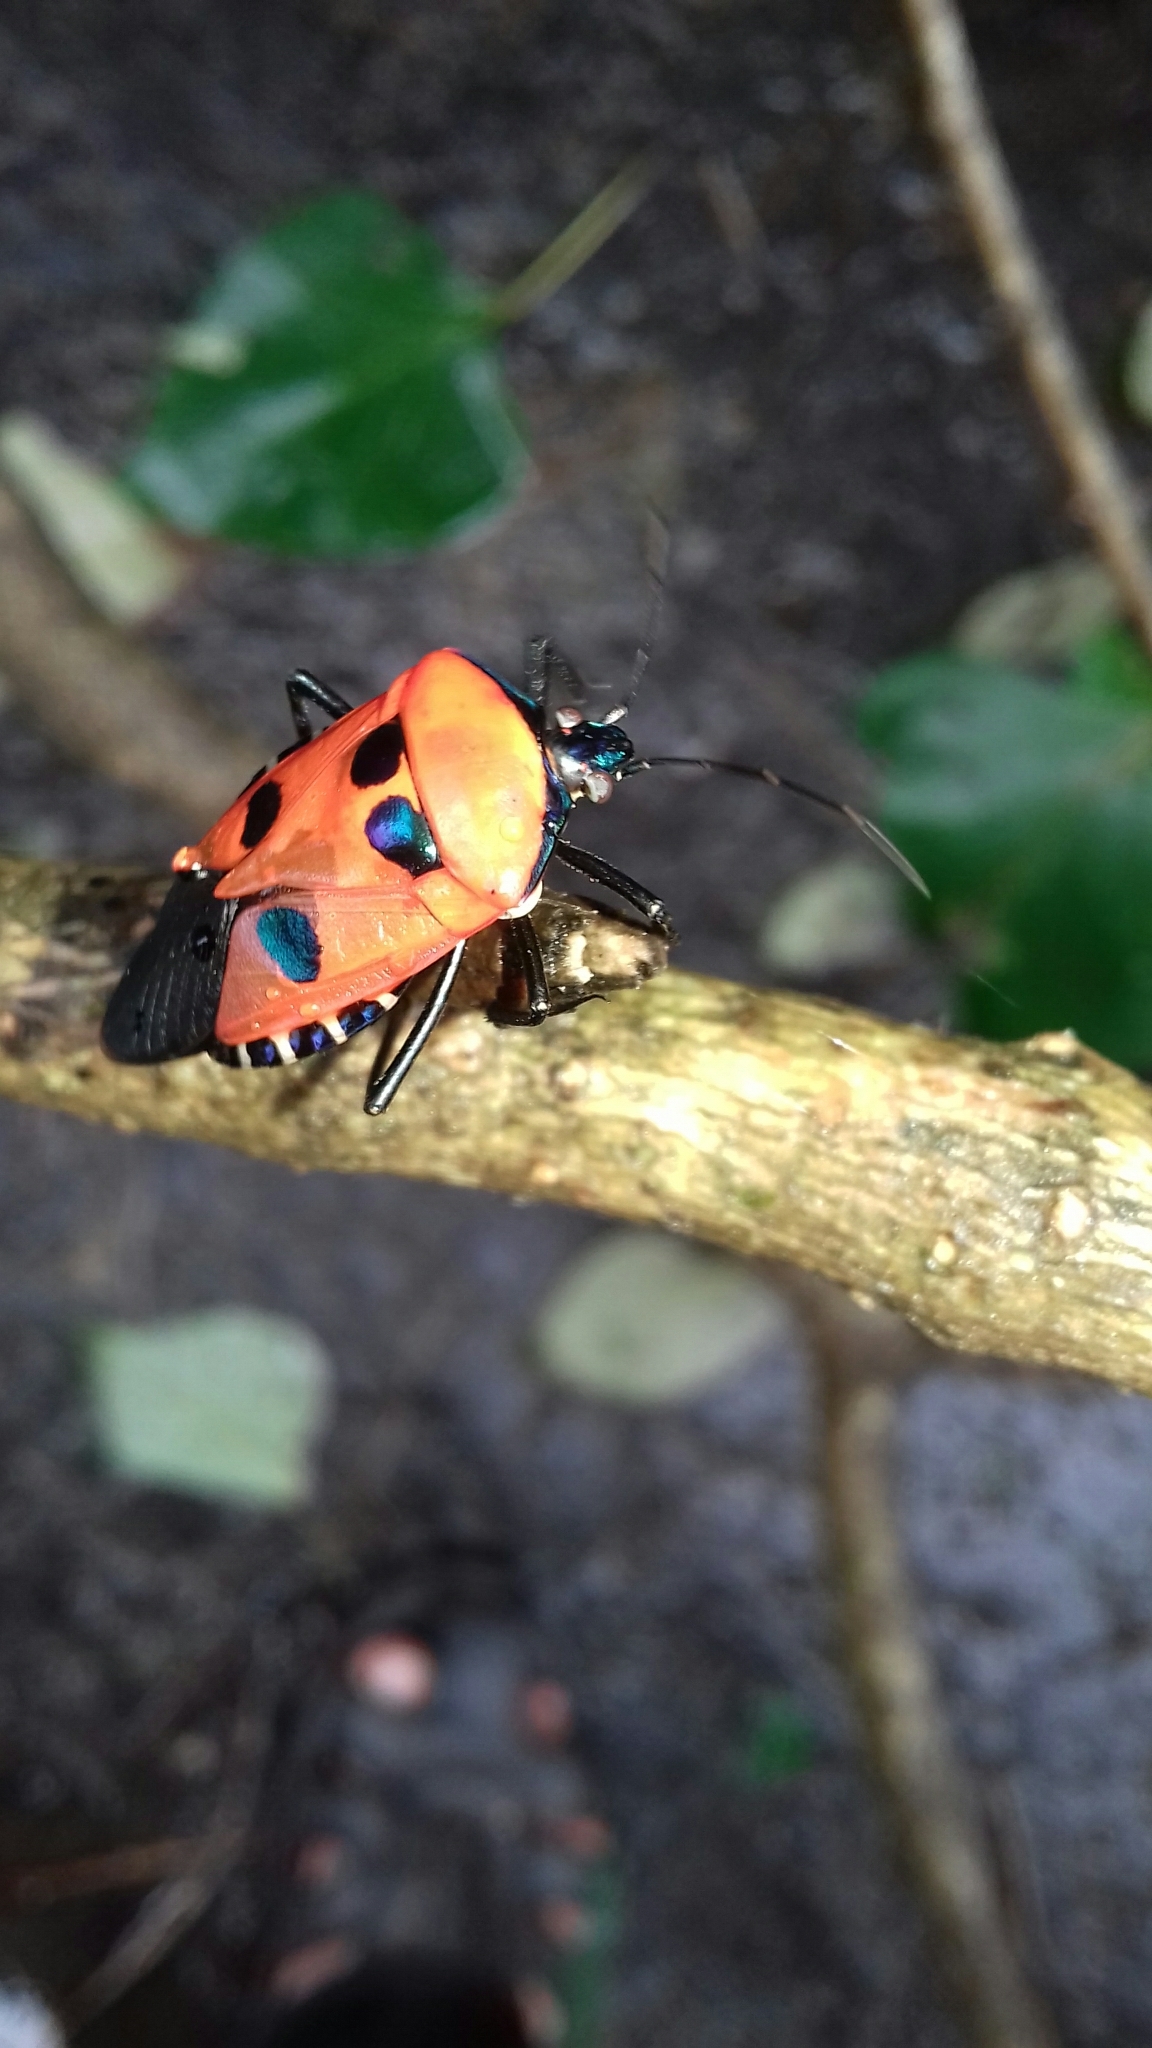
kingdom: Animalia
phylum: Arthropoda
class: Insecta
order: Hemiptera
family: Pentatomidae
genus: Catacanthus
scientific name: Catacanthus incarnatus
